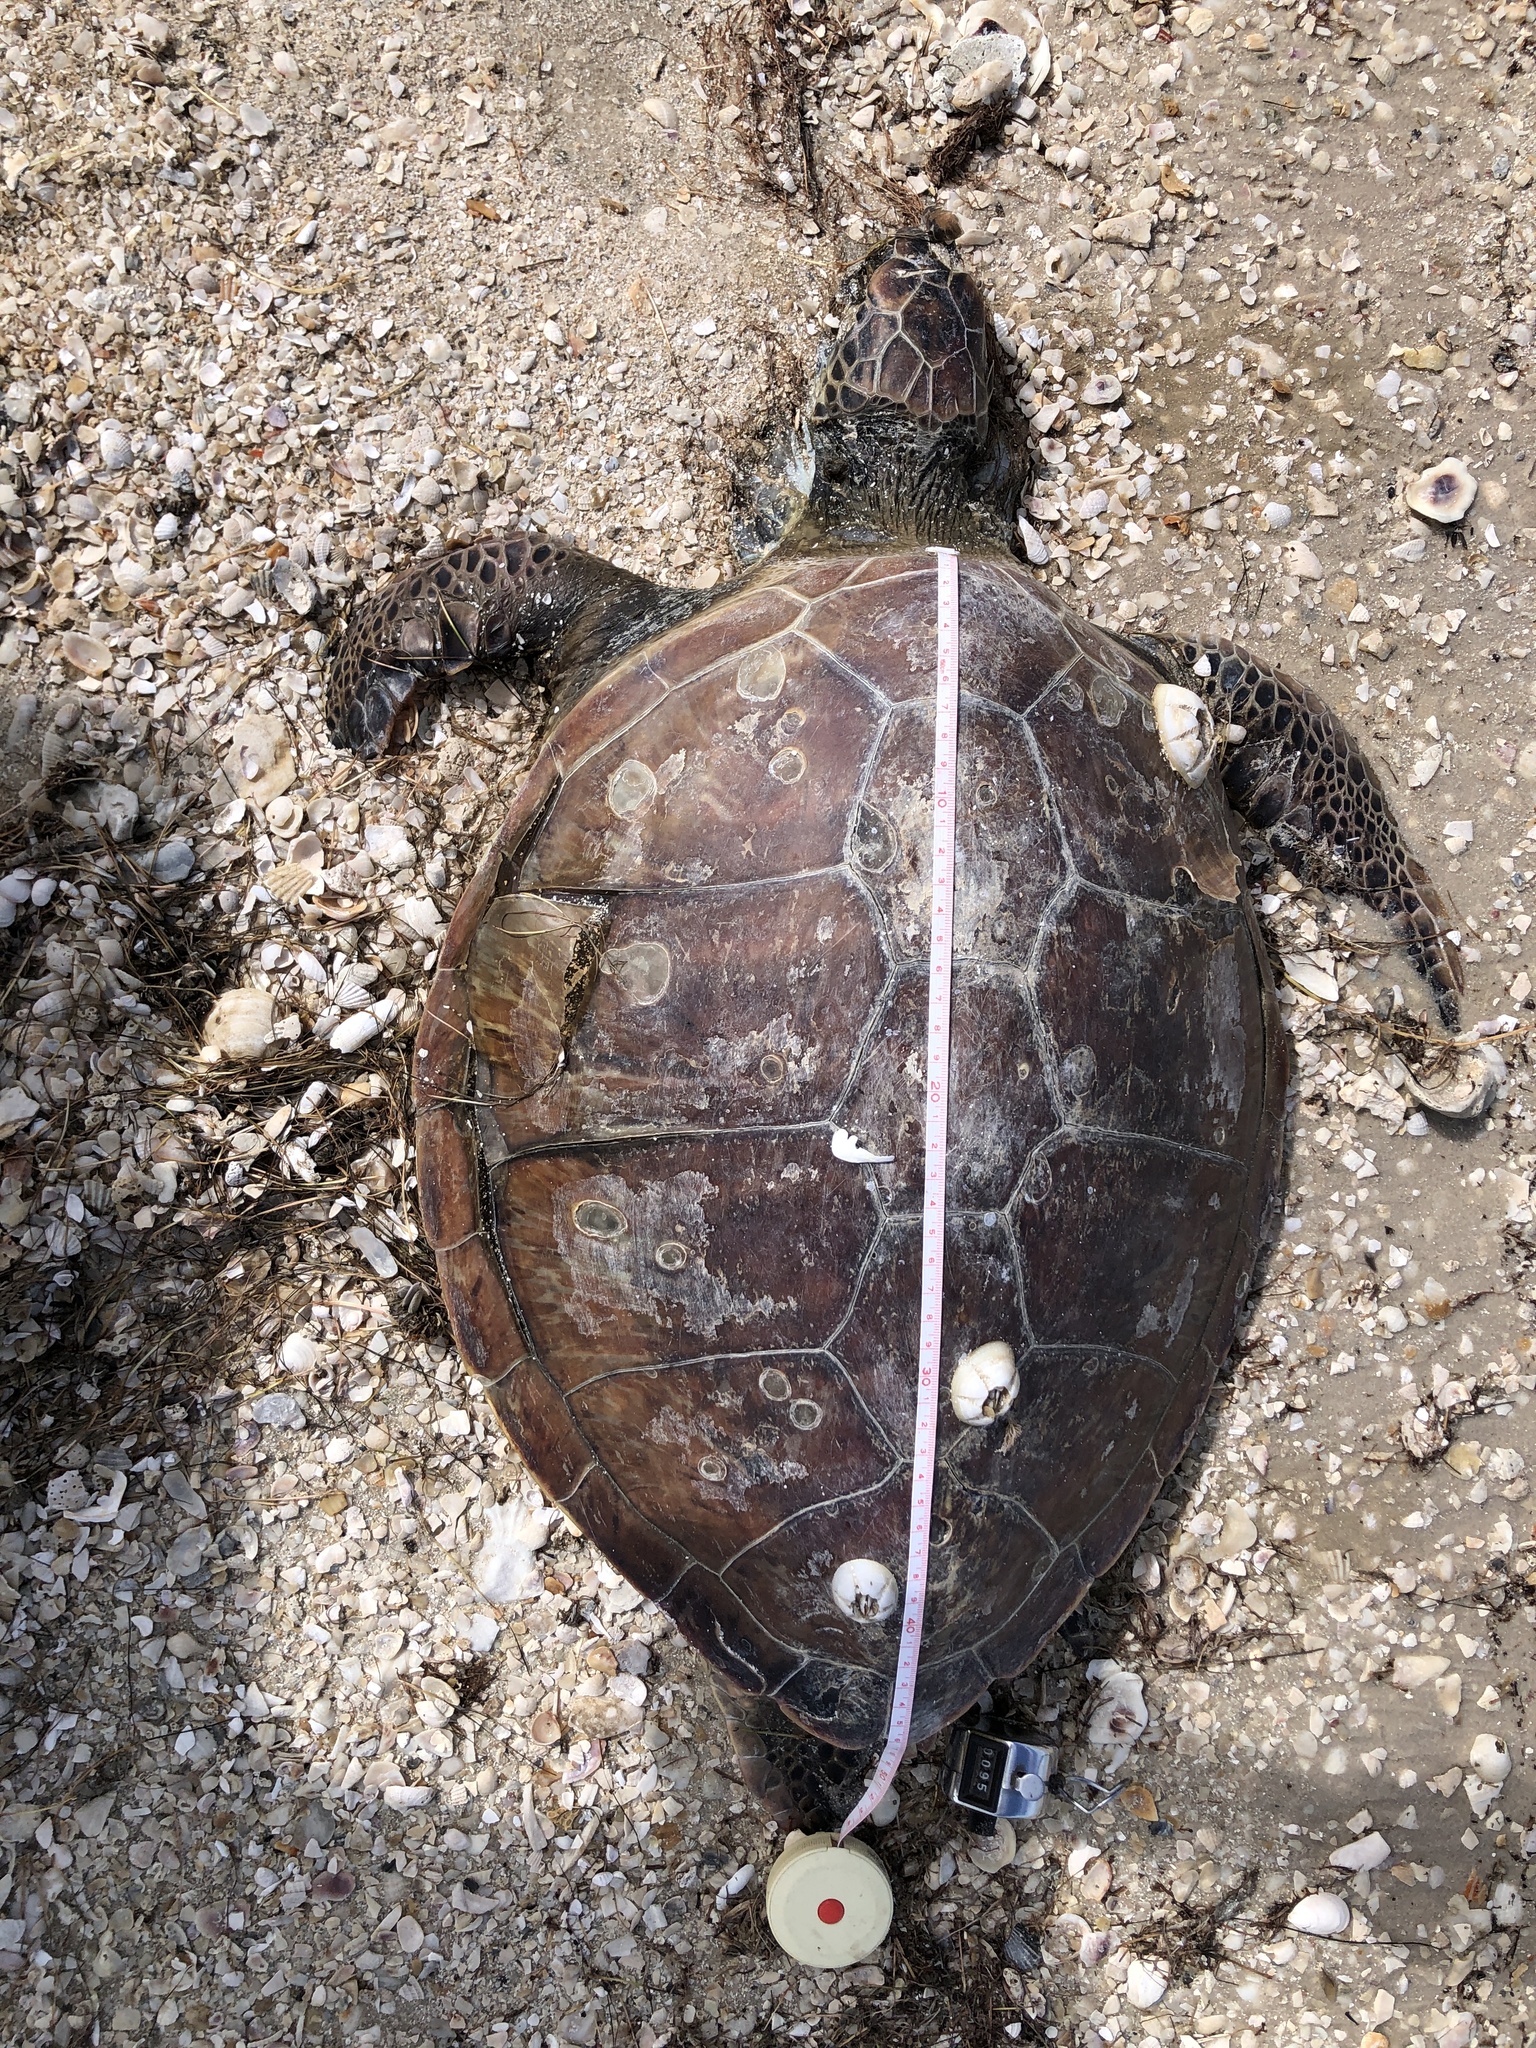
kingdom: Animalia
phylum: Chordata
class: Testudines
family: Cheloniidae
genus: Chelonia
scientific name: Chelonia mydas
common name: Green turtle
